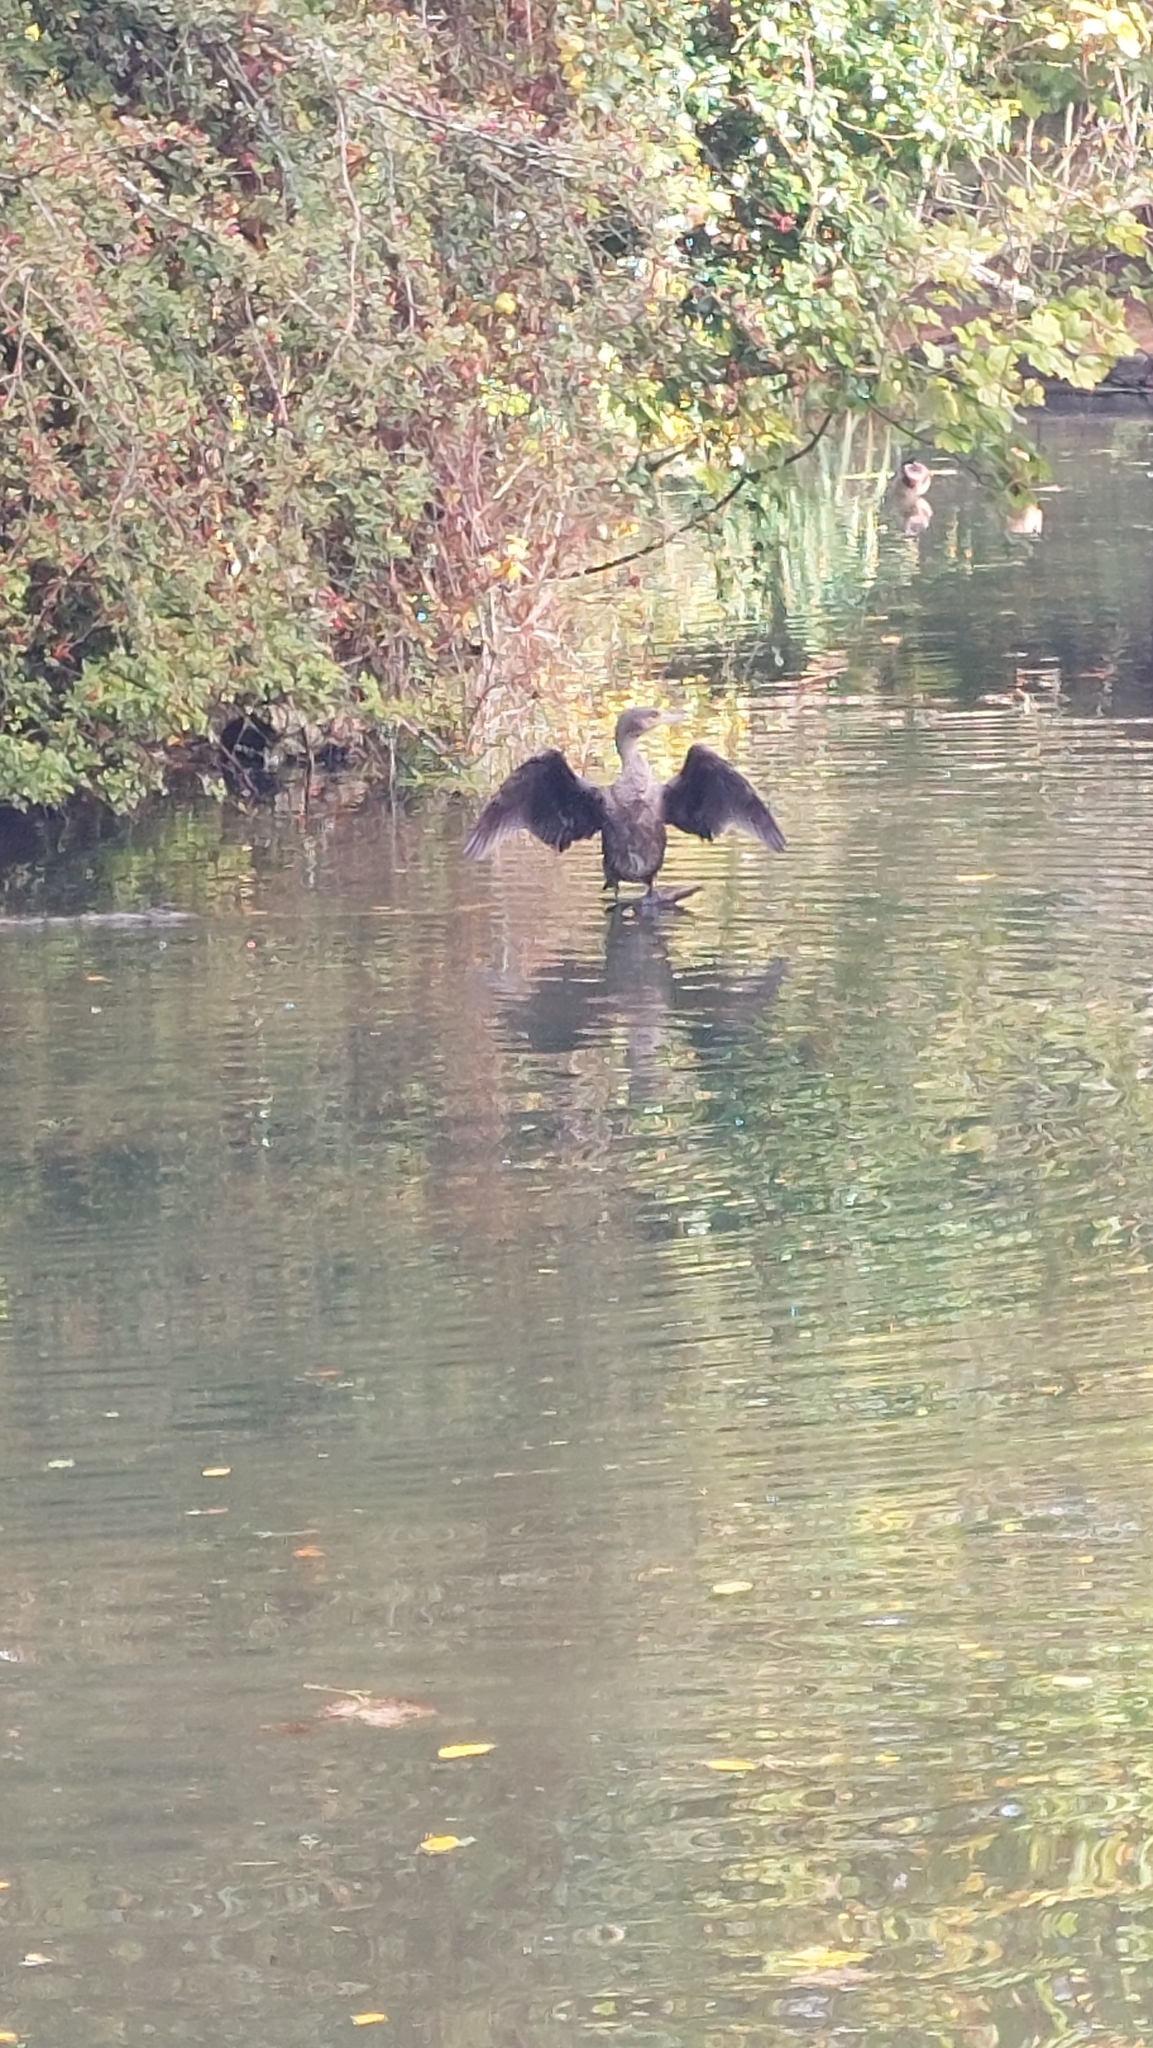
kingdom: Animalia
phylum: Chordata
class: Aves
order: Suliformes
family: Phalacrocoracidae
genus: Phalacrocorax
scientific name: Phalacrocorax carbo
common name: Great cormorant
